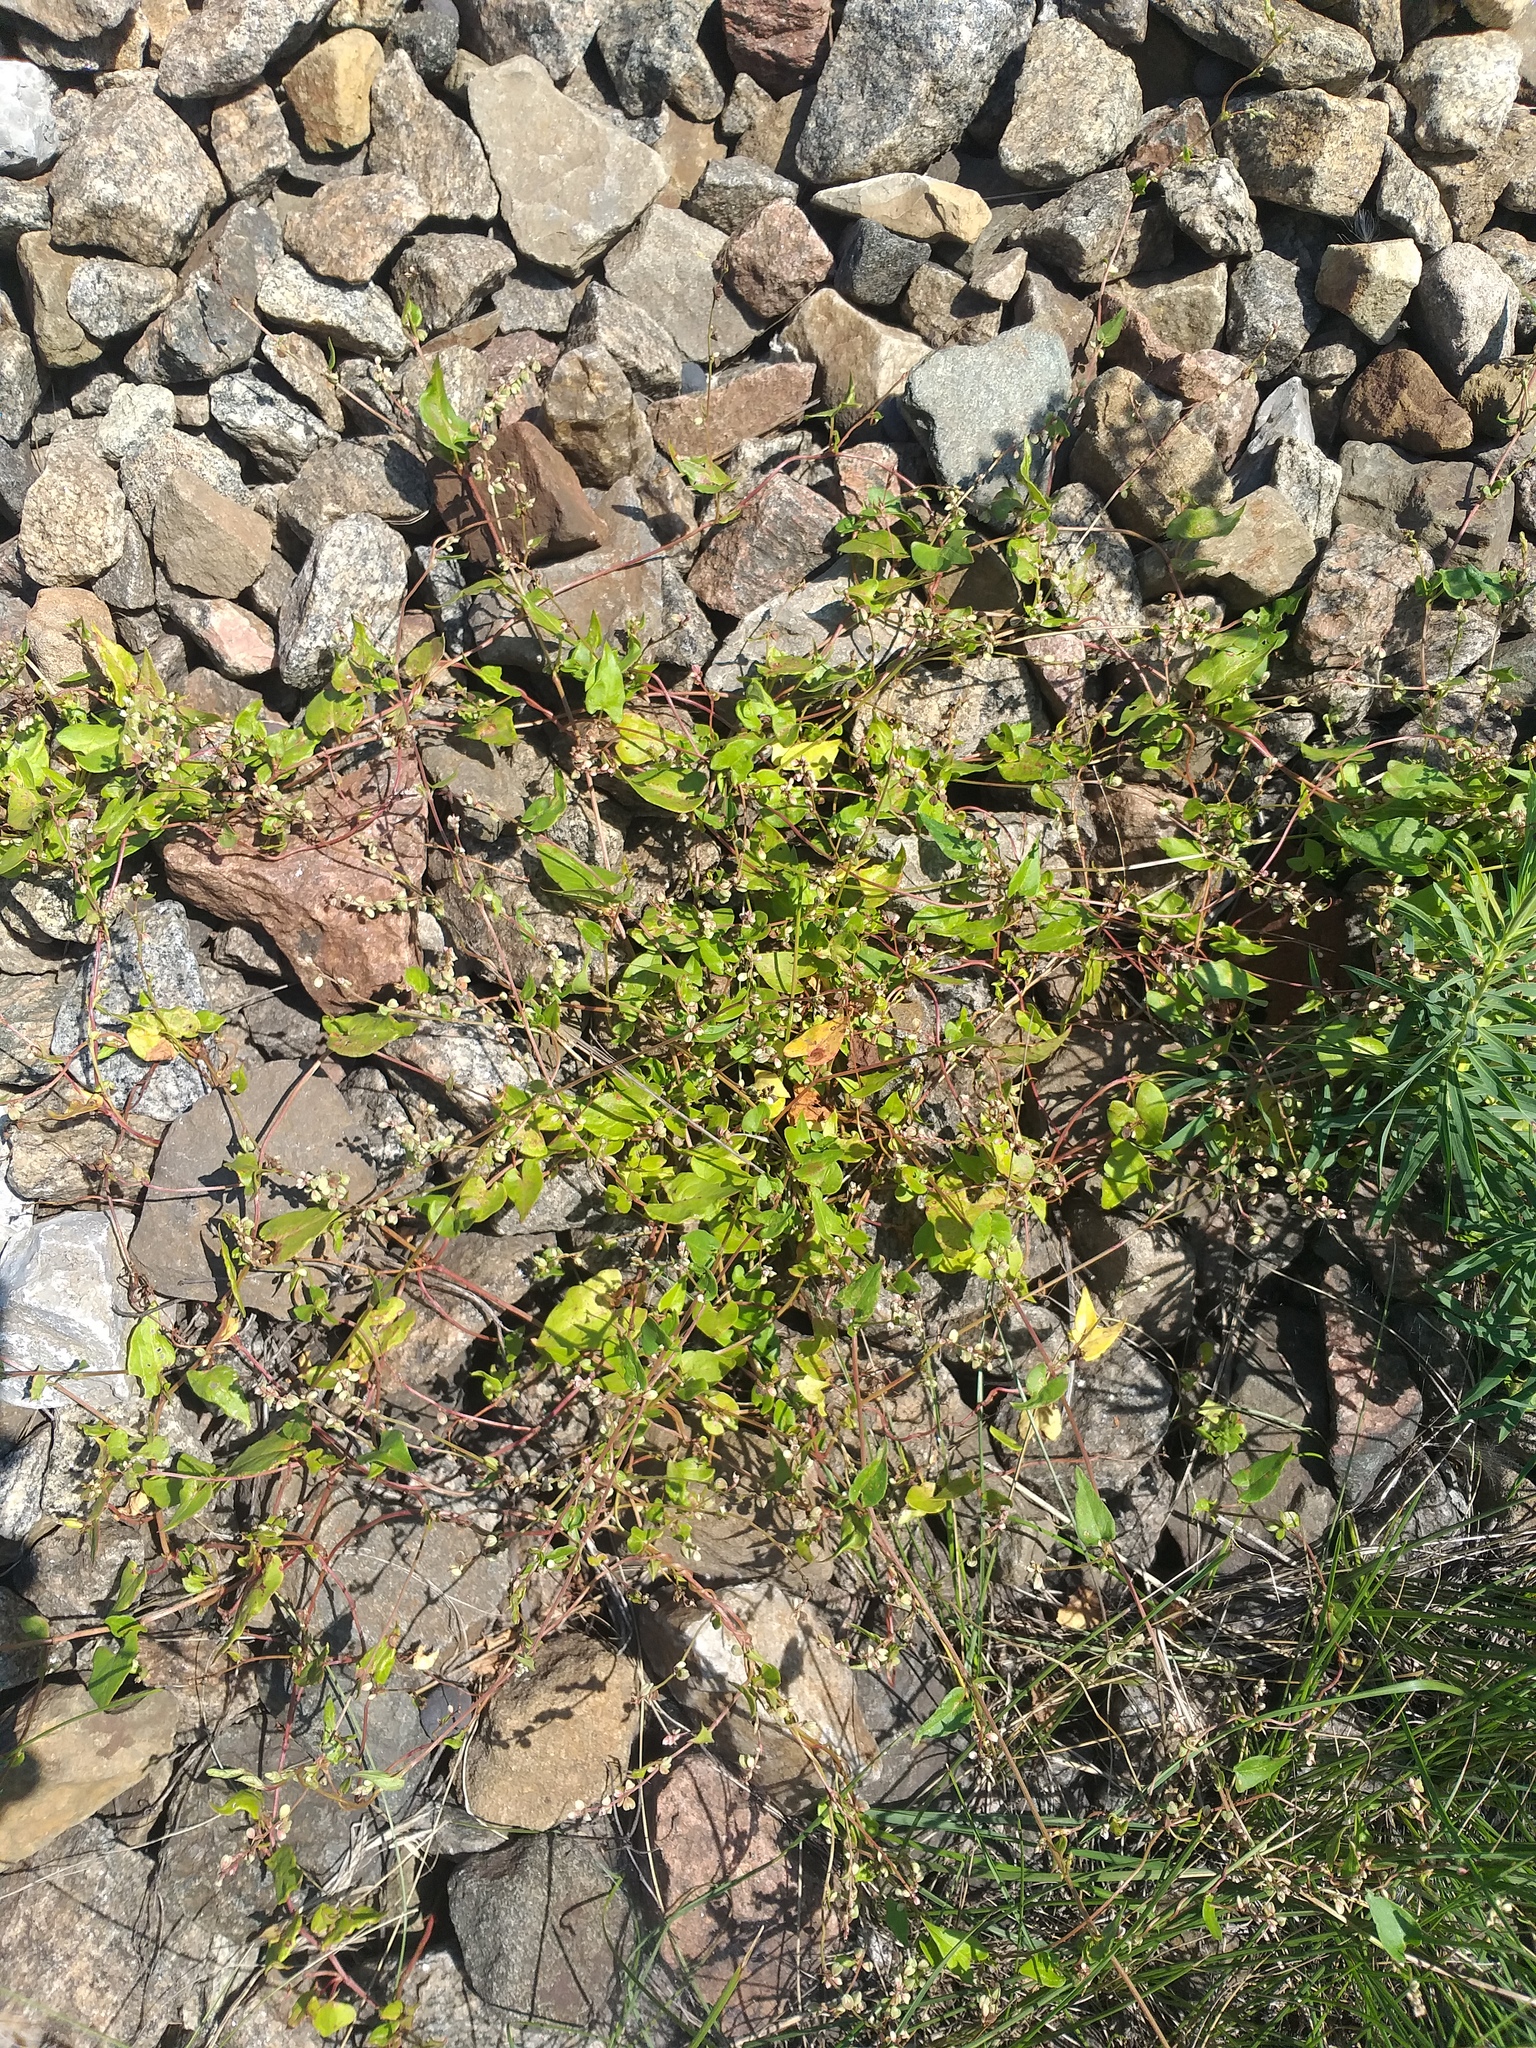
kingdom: Plantae
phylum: Tracheophyta
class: Magnoliopsida
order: Caryophyllales
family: Polygonaceae
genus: Fallopia
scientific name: Fallopia convolvulus
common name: Black bindweed
